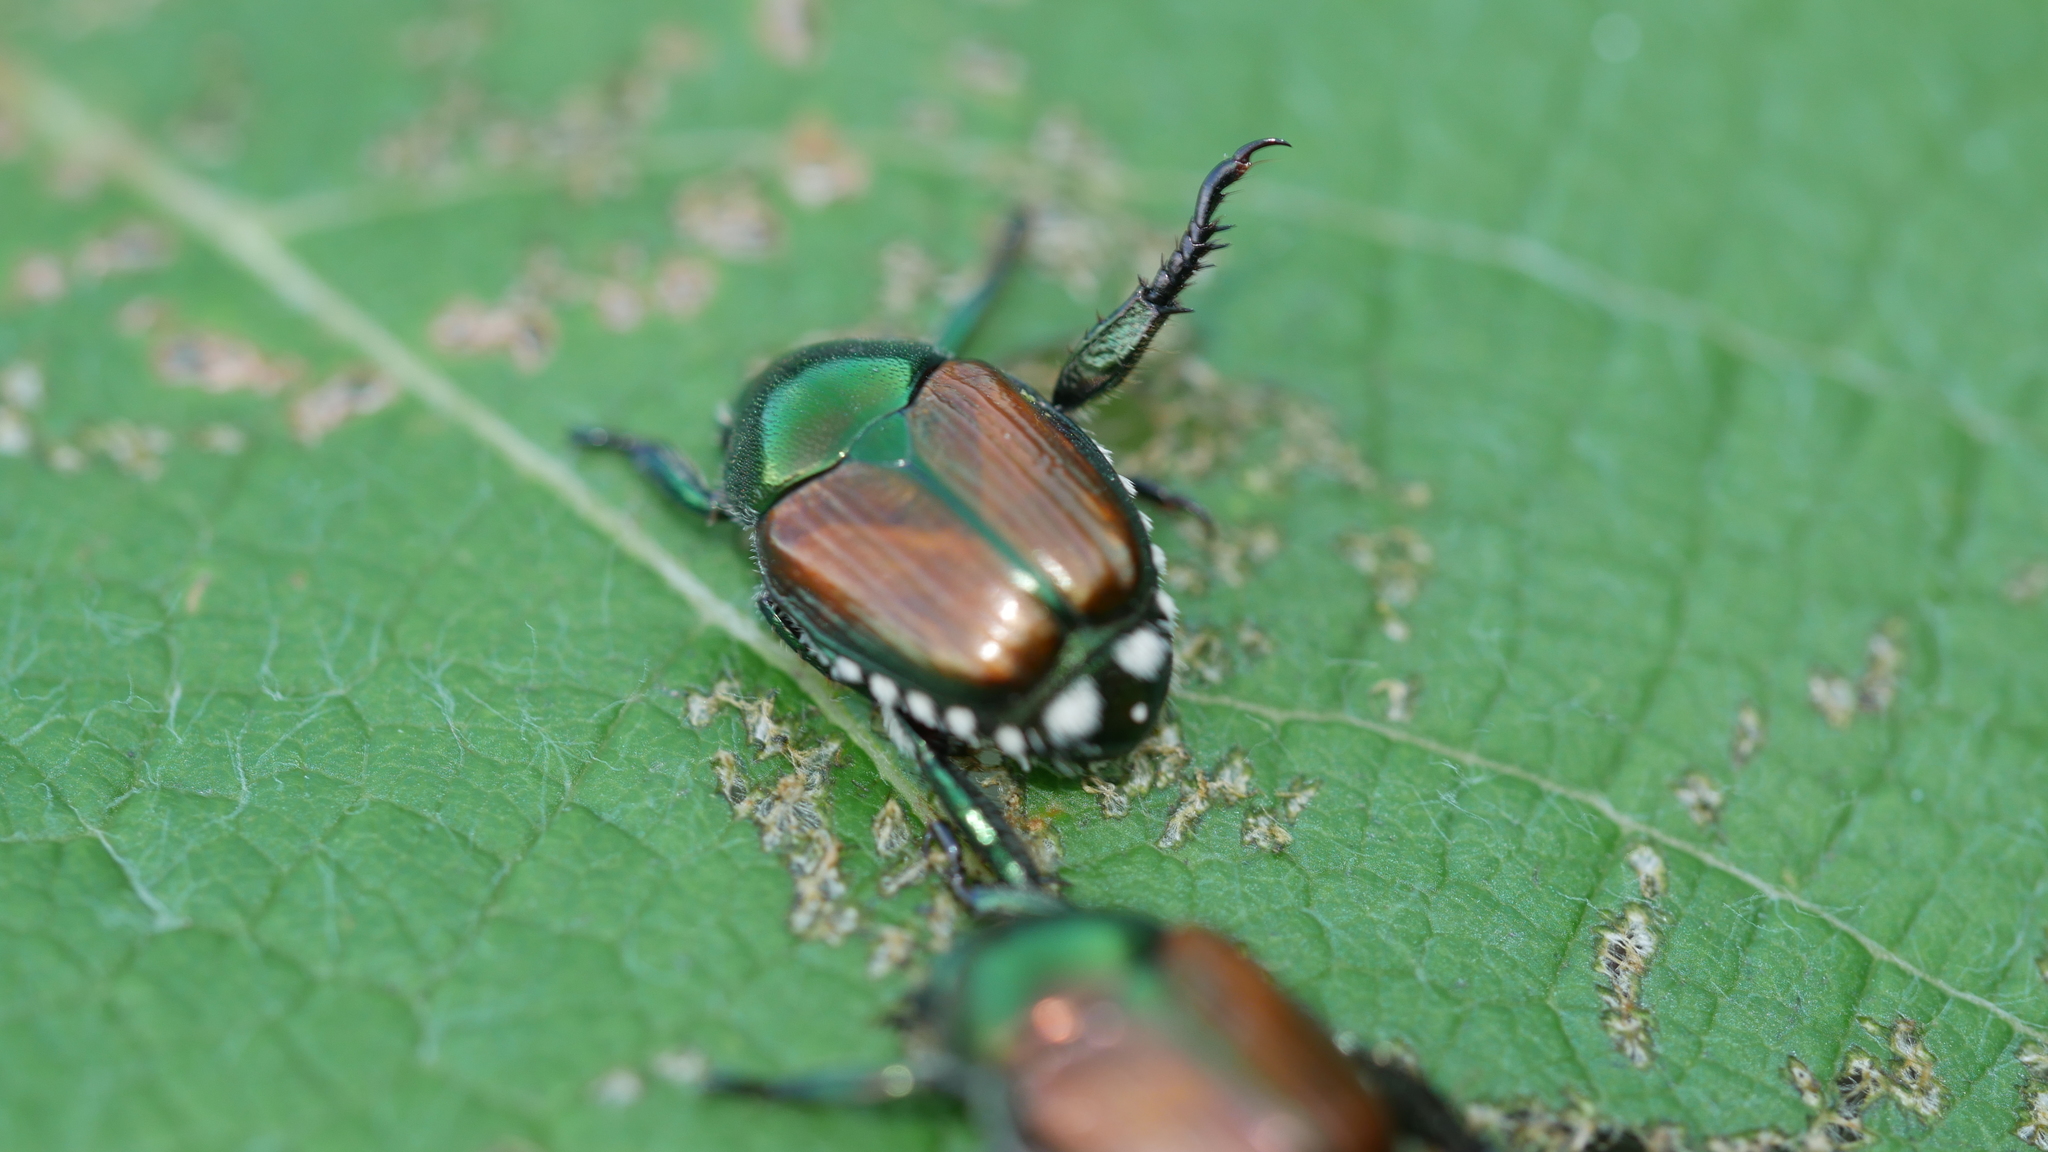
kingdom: Animalia
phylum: Arthropoda
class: Insecta
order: Coleoptera
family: Scarabaeidae
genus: Popillia
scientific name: Popillia japonica
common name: Japanese beetle
